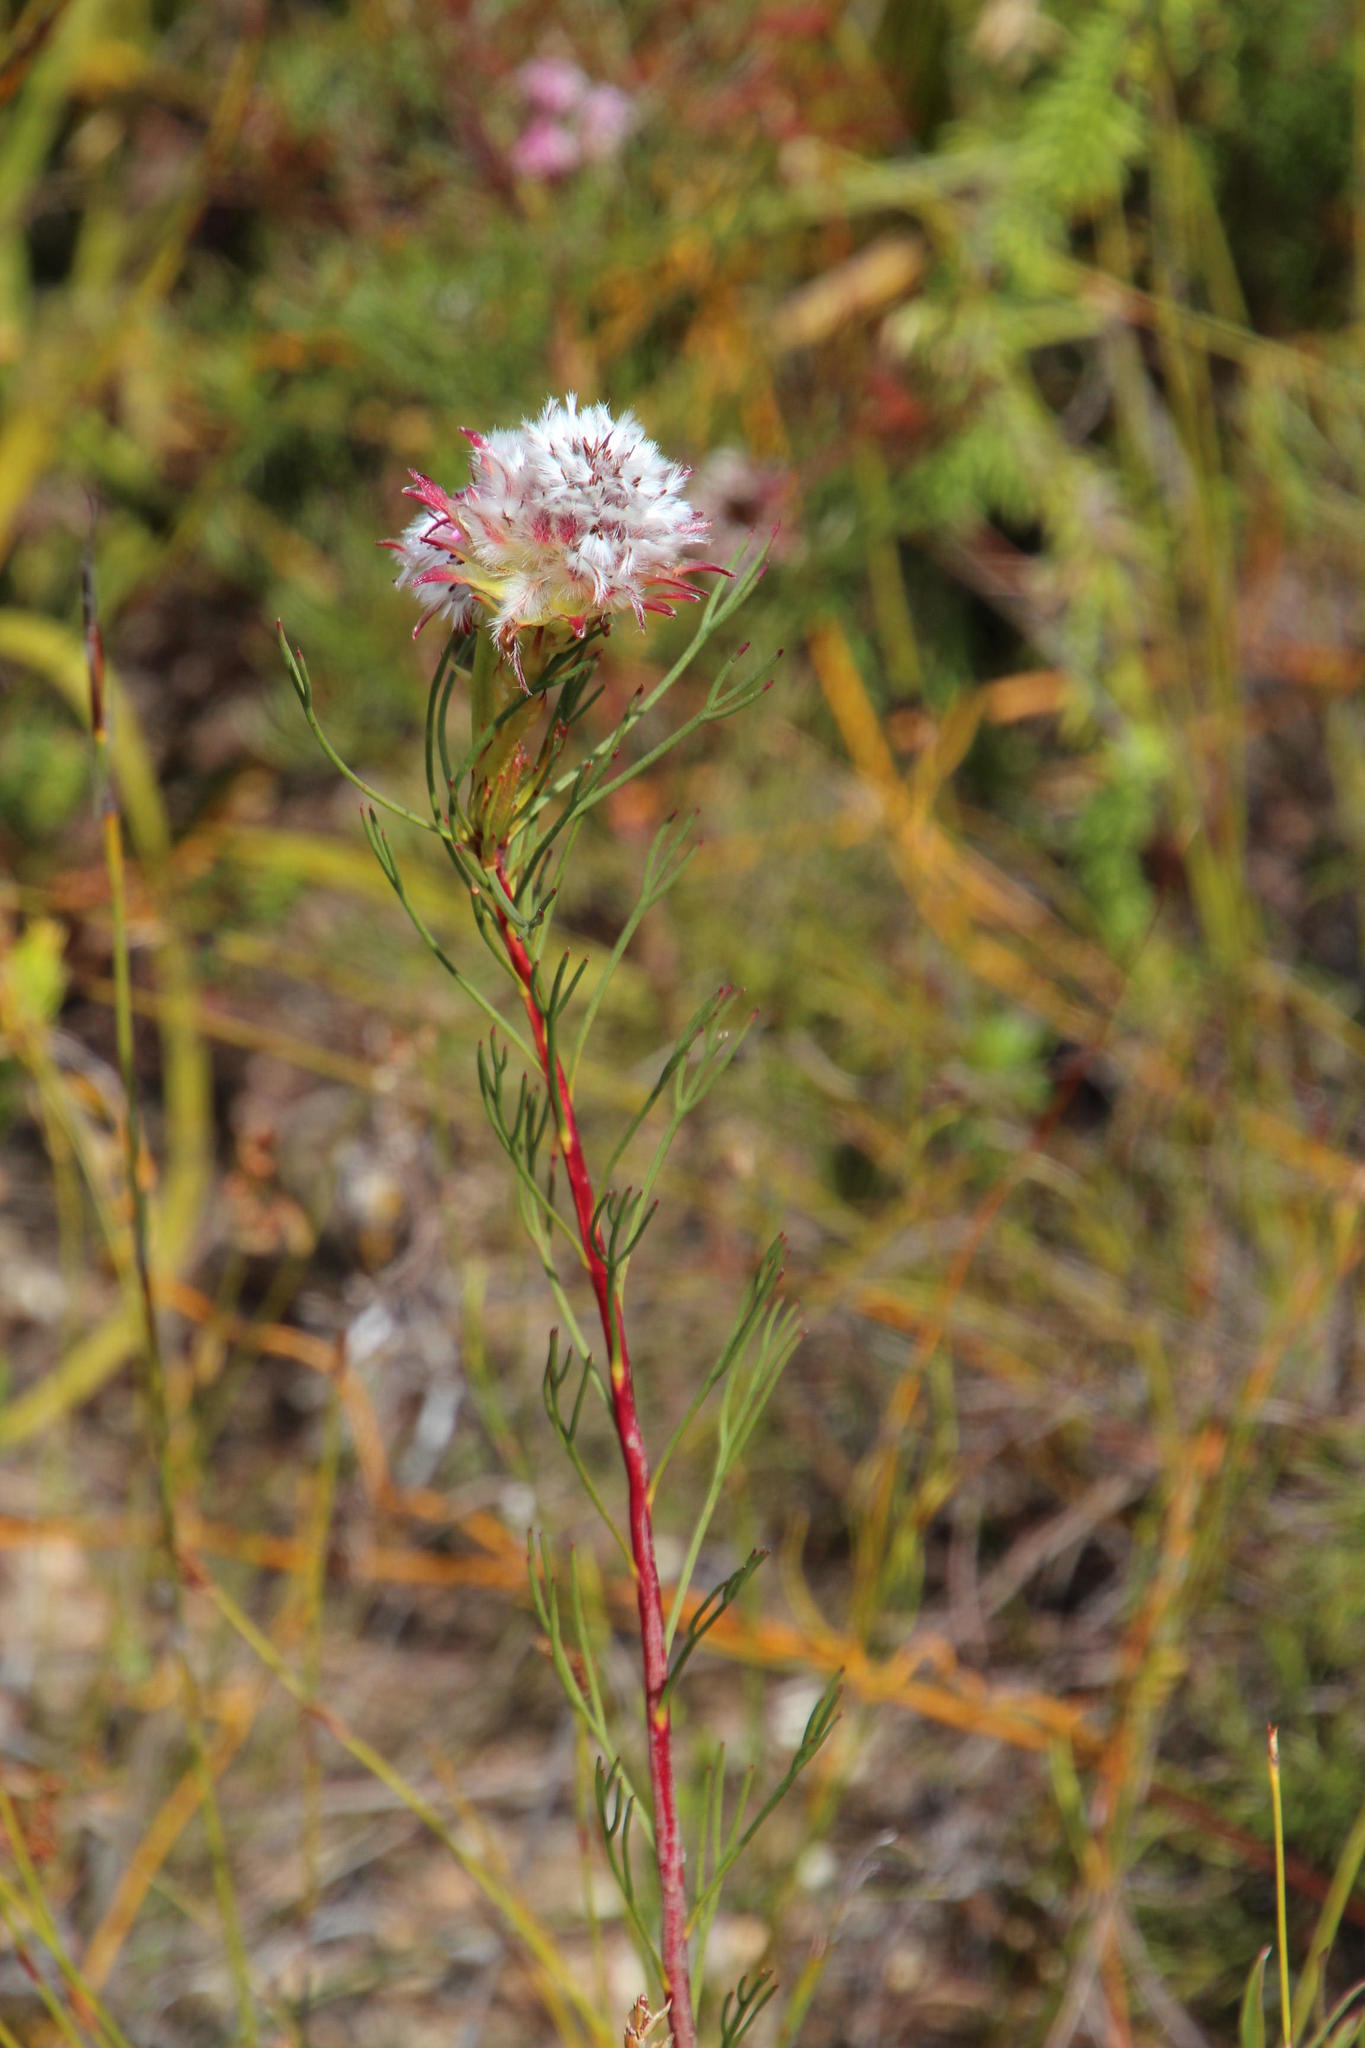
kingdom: Plantae
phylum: Tracheophyta
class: Magnoliopsida
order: Proteales
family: Proteaceae
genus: Serruria
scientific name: Serruria phylicoides
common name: Bearded spiderhead
